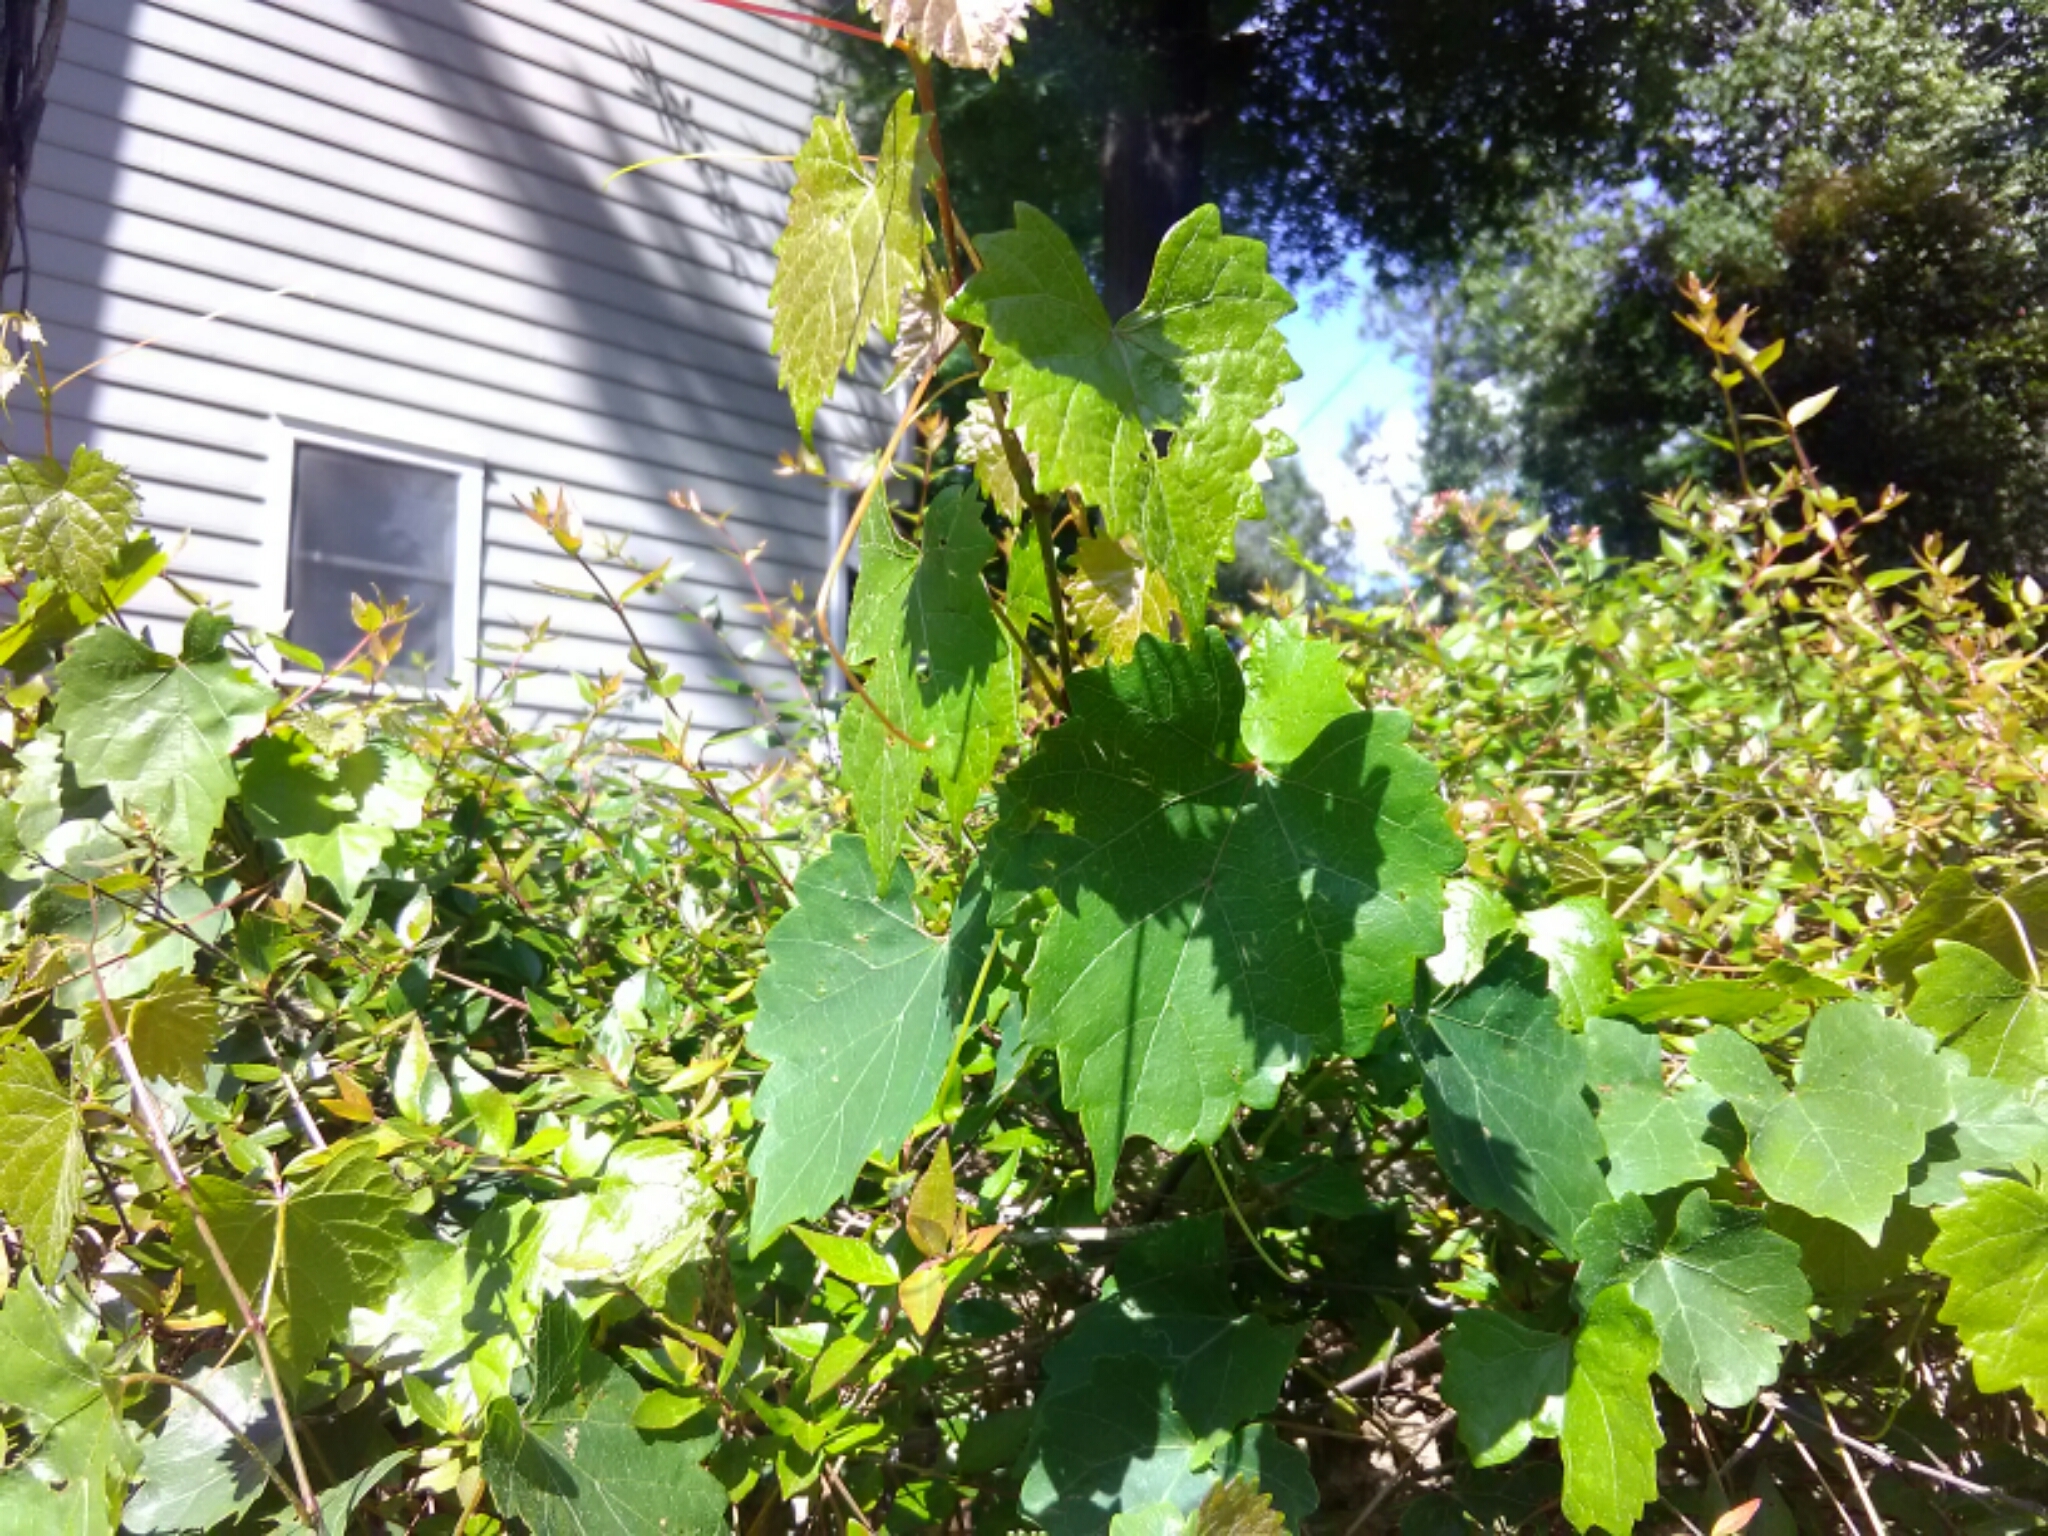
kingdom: Plantae
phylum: Tracheophyta
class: Magnoliopsida
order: Vitales
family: Vitaceae
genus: Vitis
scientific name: Vitis rotundifolia
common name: Muscadine grape
